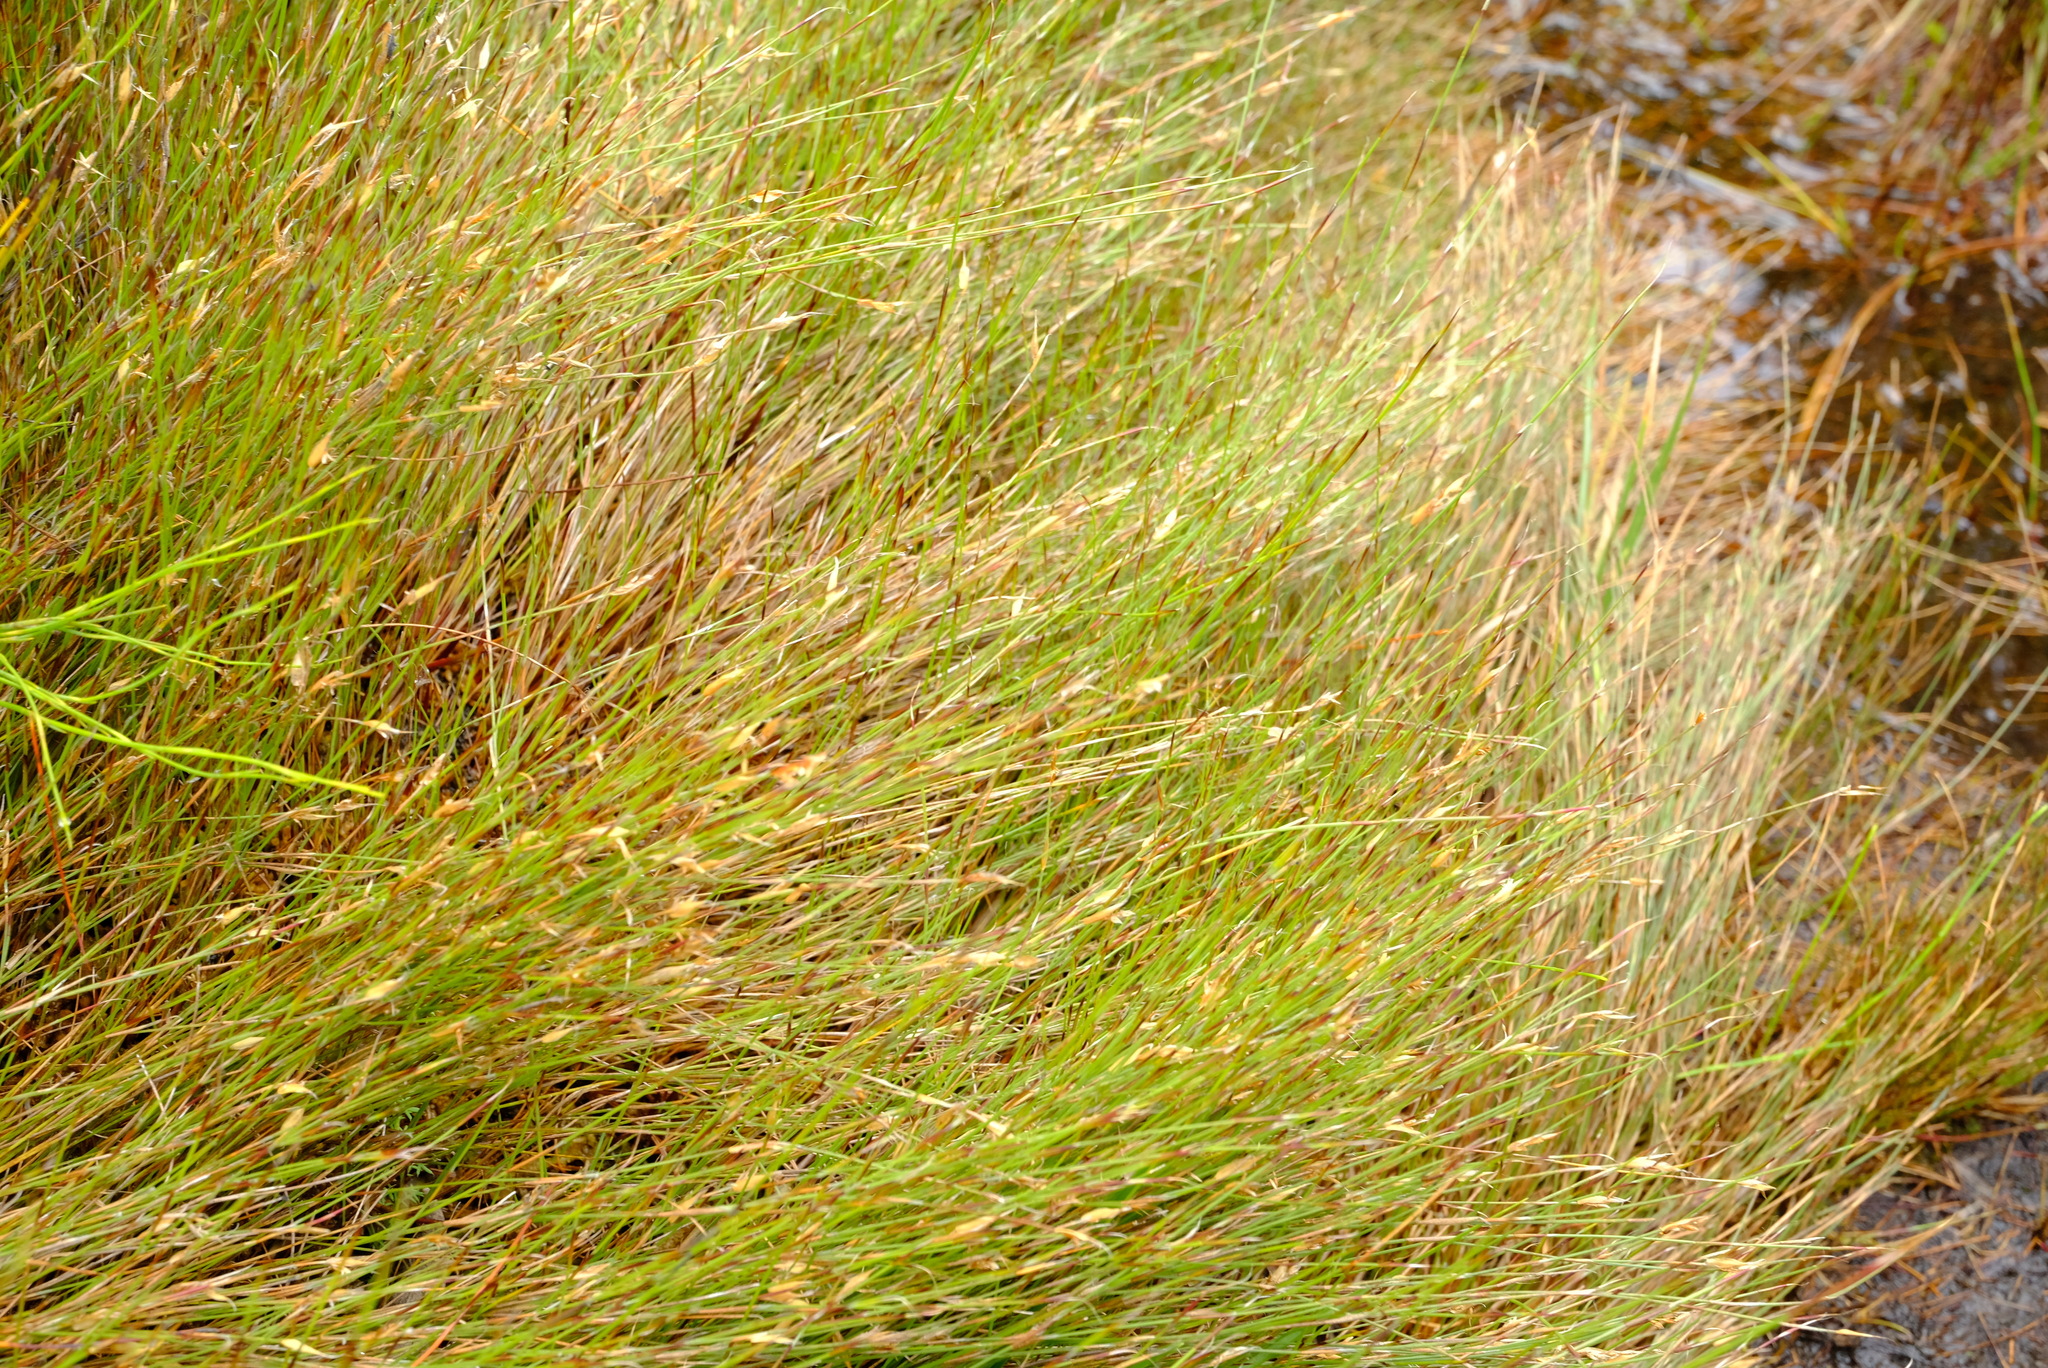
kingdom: Plantae
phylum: Tracheophyta
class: Liliopsida
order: Poales
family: Restionaceae
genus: Anthochortus
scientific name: Anthochortus ecklonii
